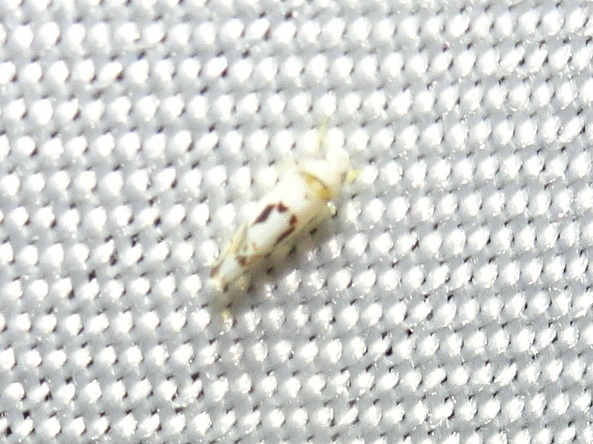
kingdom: Animalia
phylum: Arthropoda
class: Insecta
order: Hemiptera
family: Cicadellidae
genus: Eratoneura
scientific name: Eratoneura hymettana
